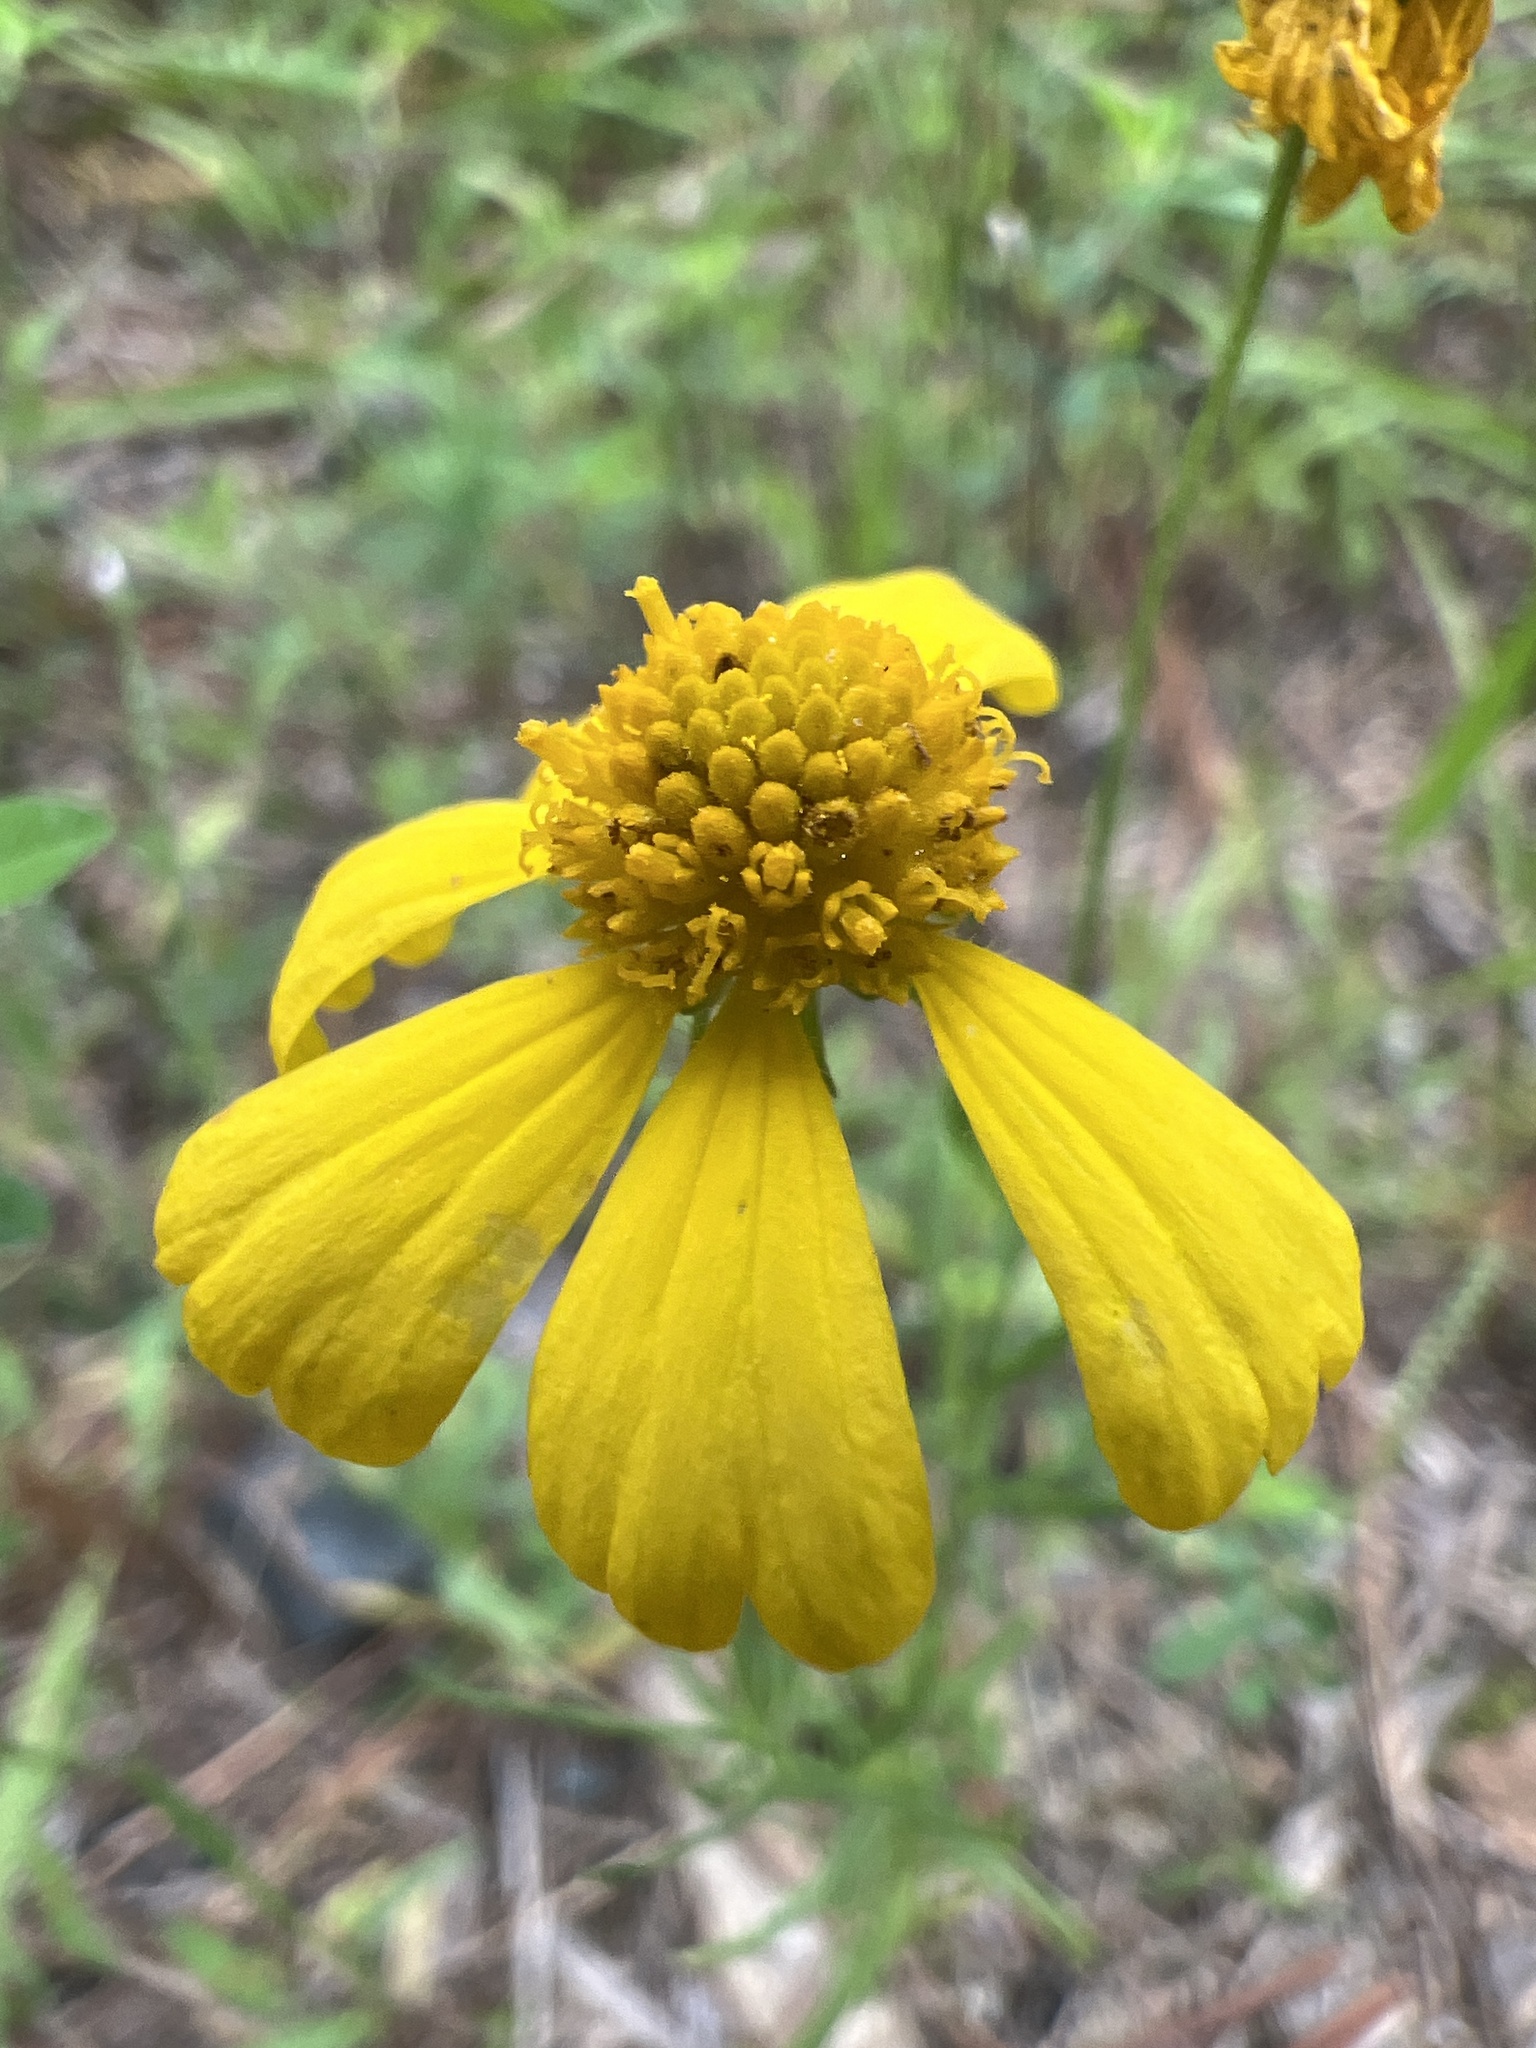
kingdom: Plantae
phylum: Tracheophyta
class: Magnoliopsida
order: Asterales
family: Asteraceae
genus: Helenium
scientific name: Helenium amarum
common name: Bitter sneezeweed
